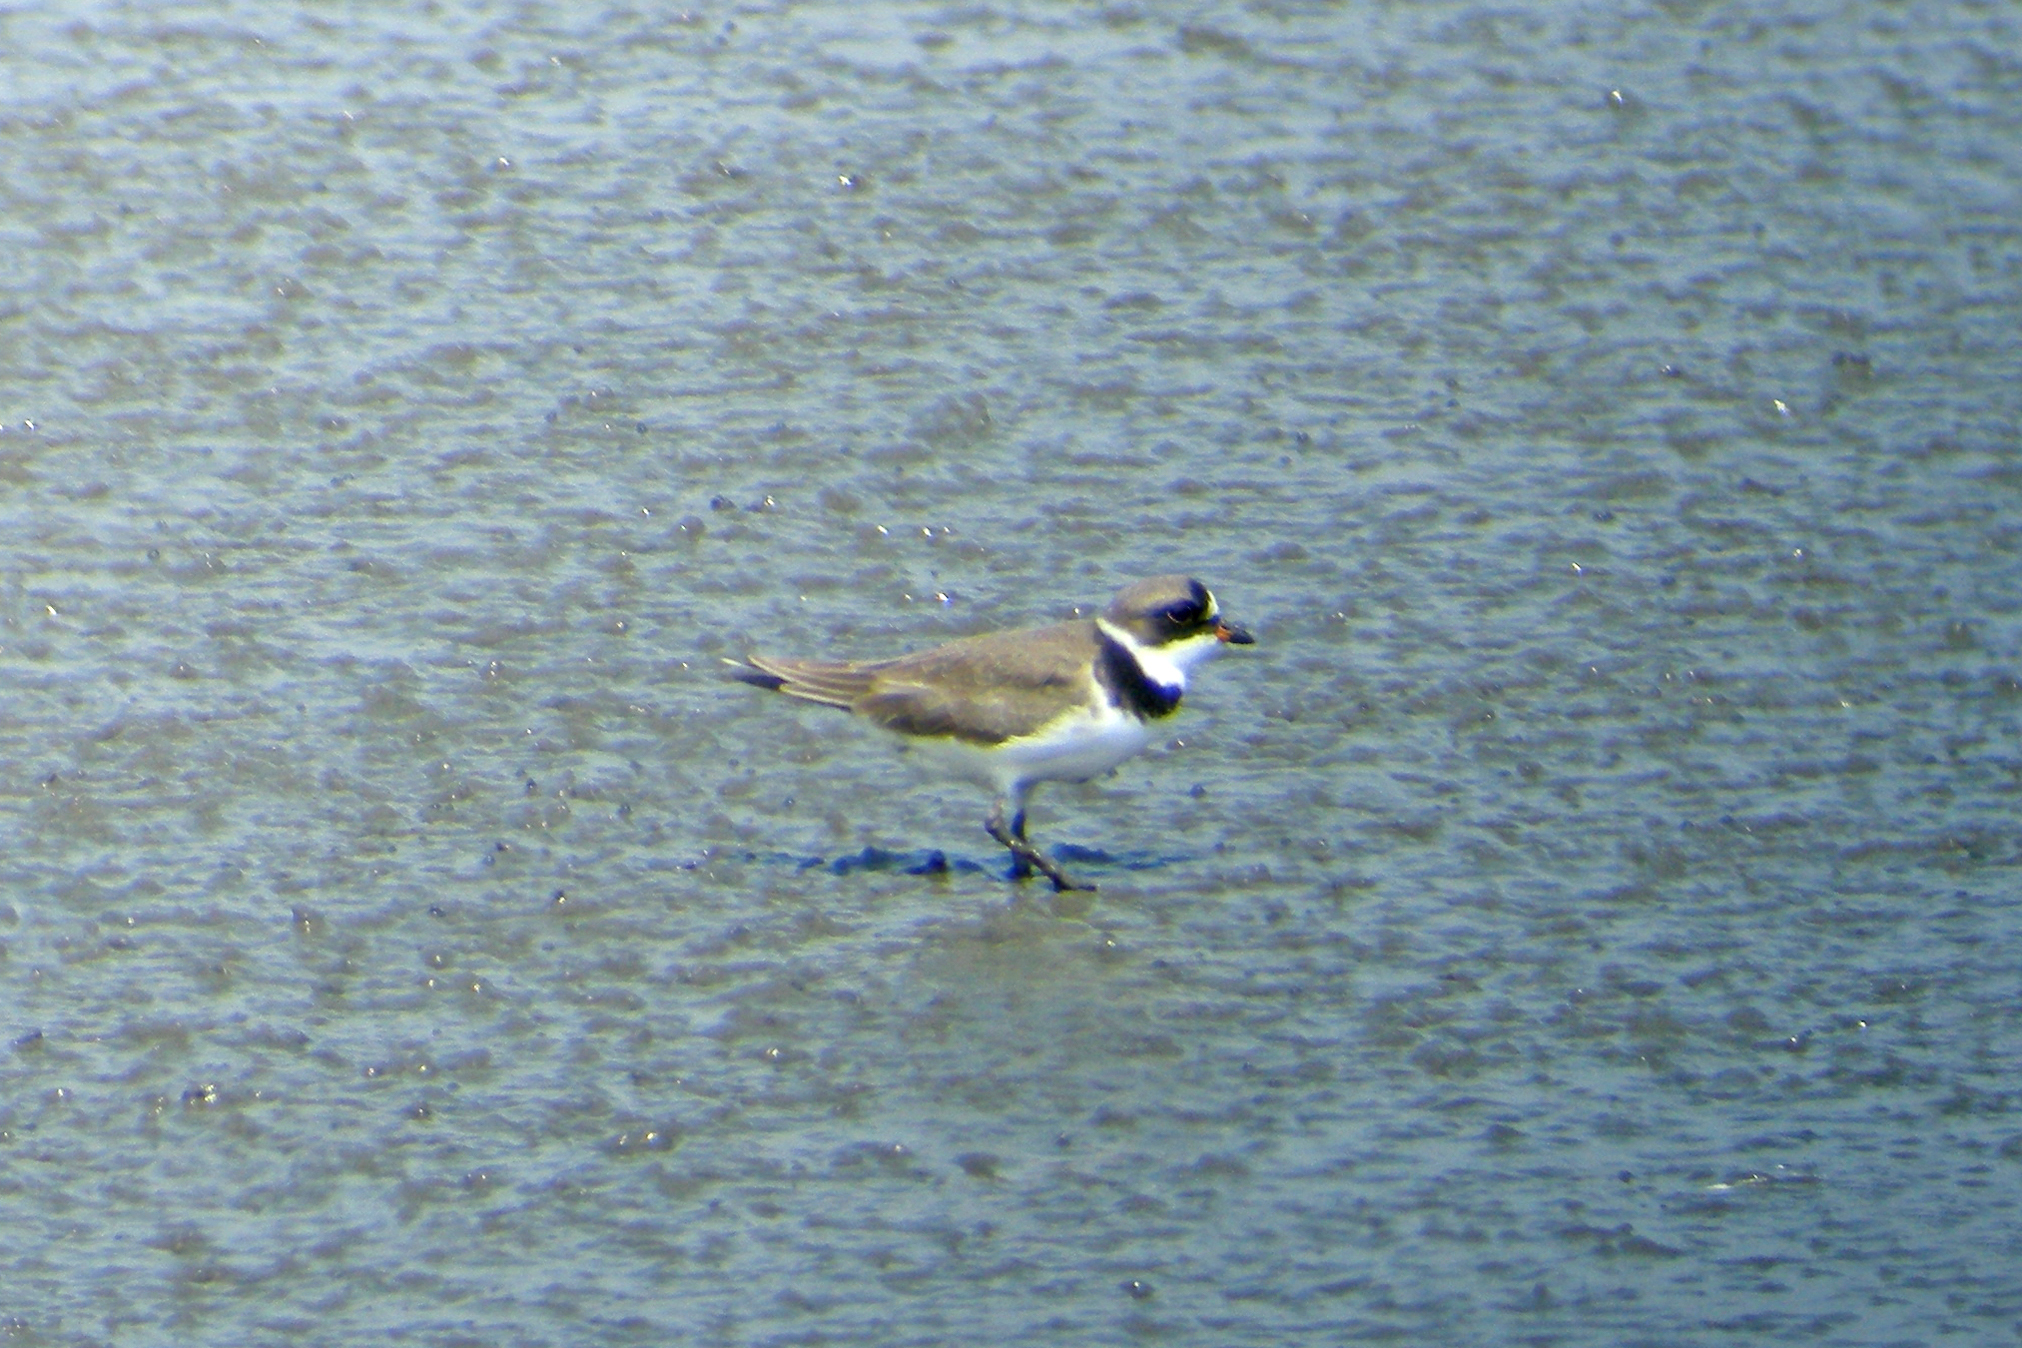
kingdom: Animalia
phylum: Chordata
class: Aves
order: Charadriiformes
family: Charadriidae
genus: Charadrius
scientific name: Charadrius semipalmatus
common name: Semipalmated plover
